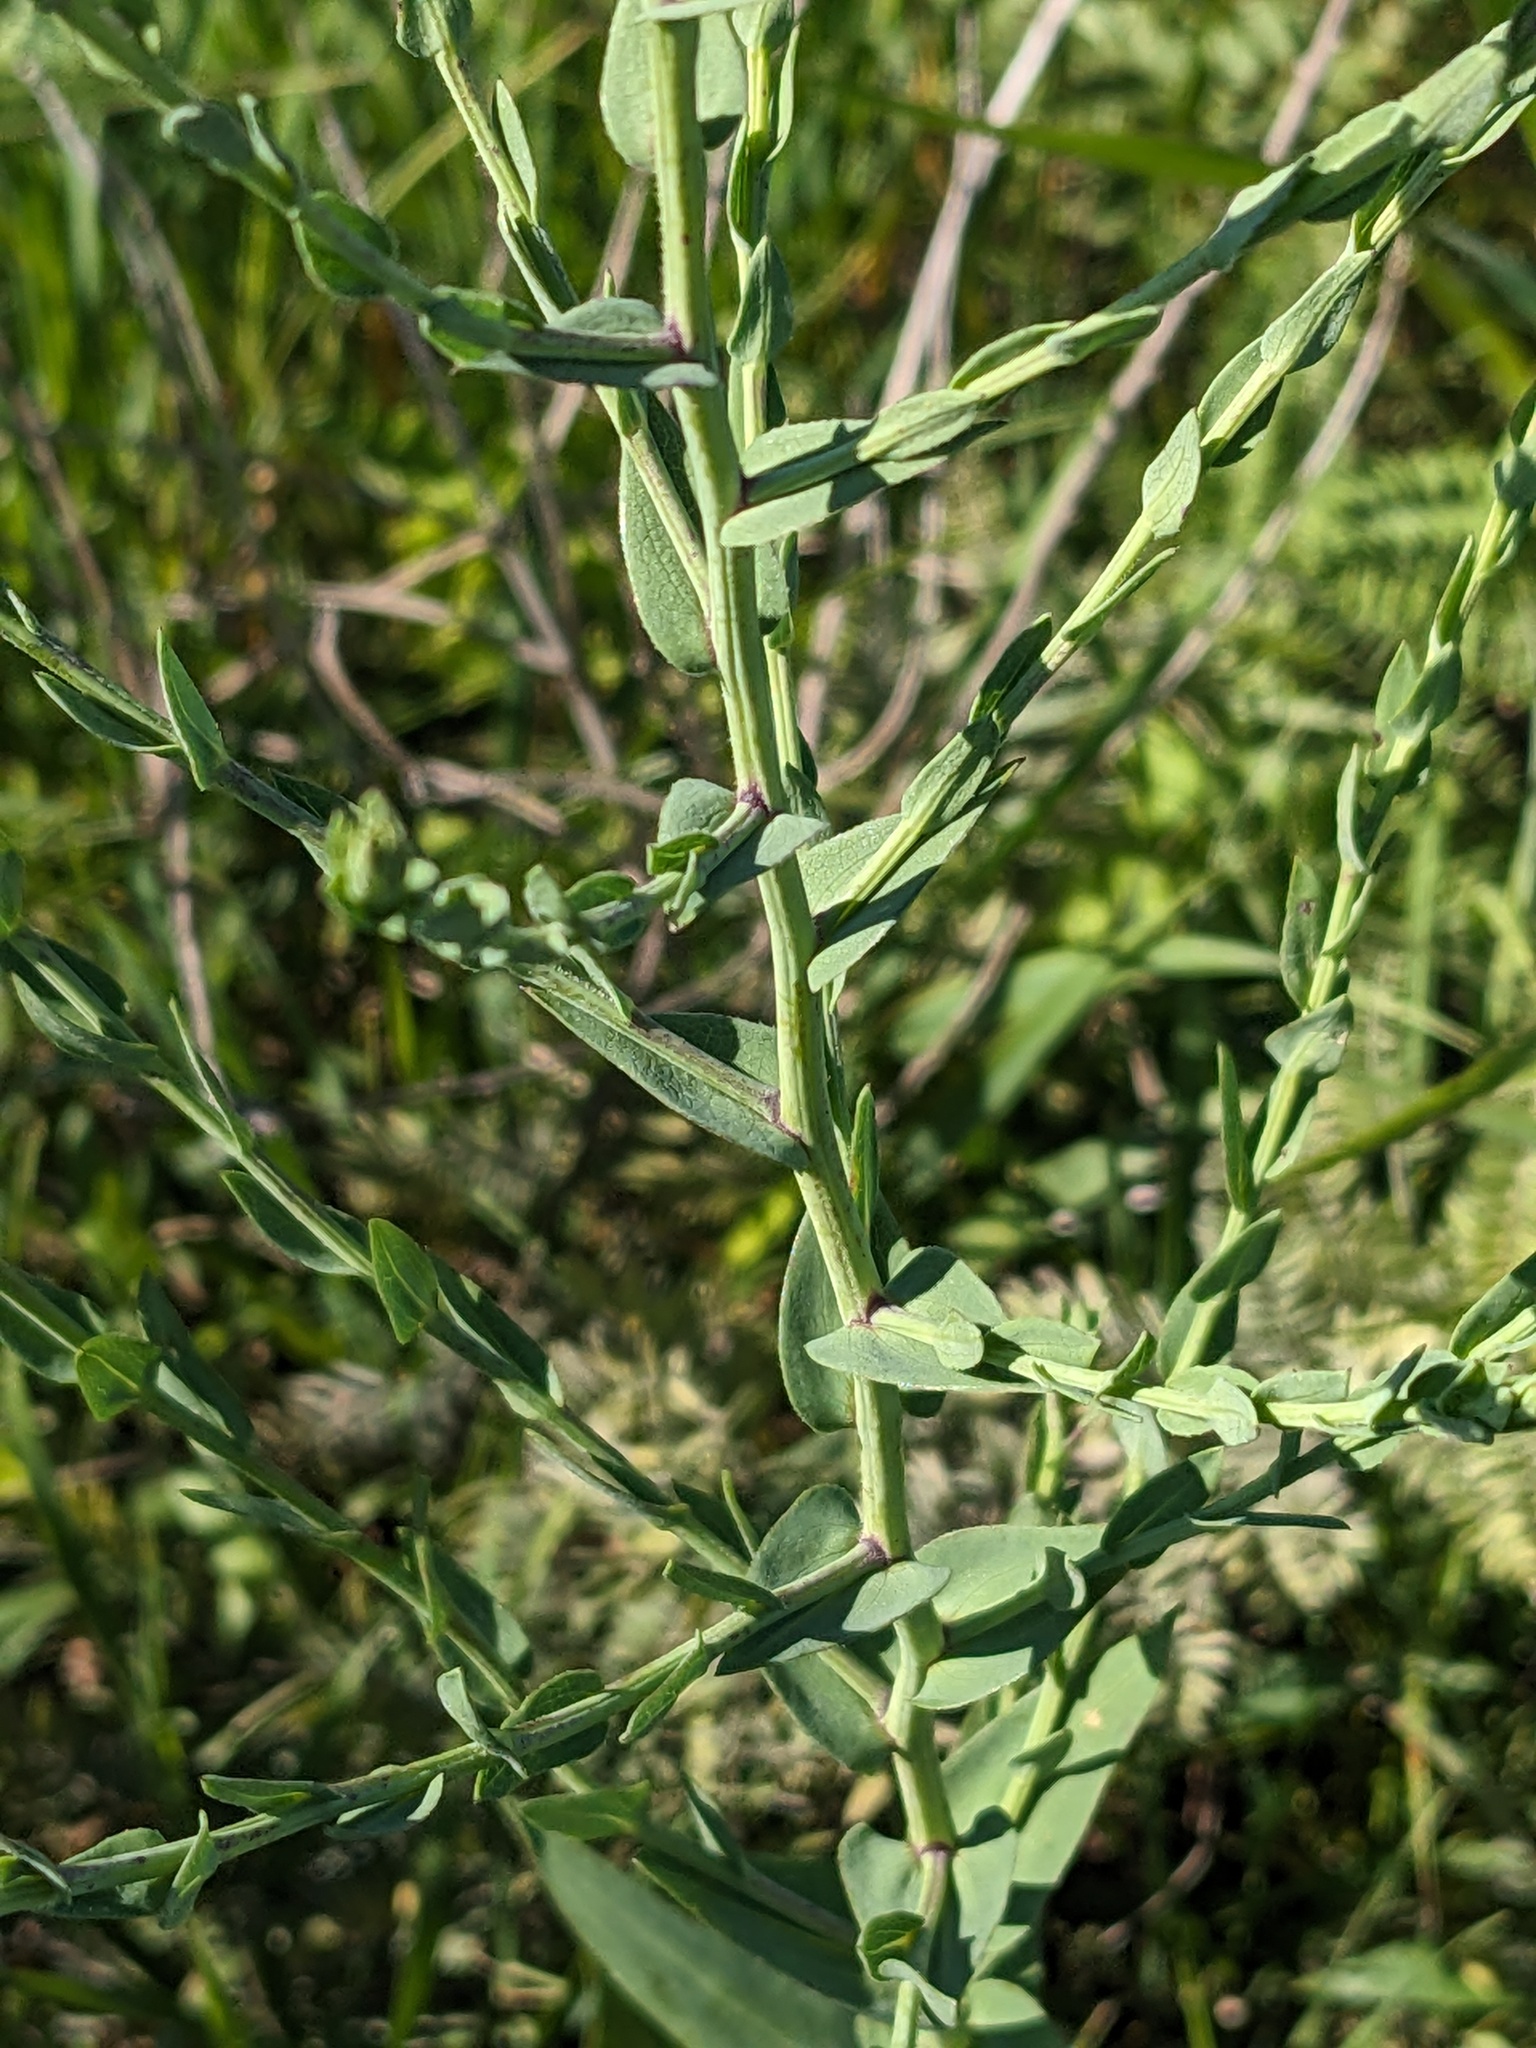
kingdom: Plantae
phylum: Tracheophyta
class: Magnoliopsida
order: Asterales
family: Asteraceae
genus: Symphyotrichum
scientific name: Symphyotrichum laeve
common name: Glaucous aster
